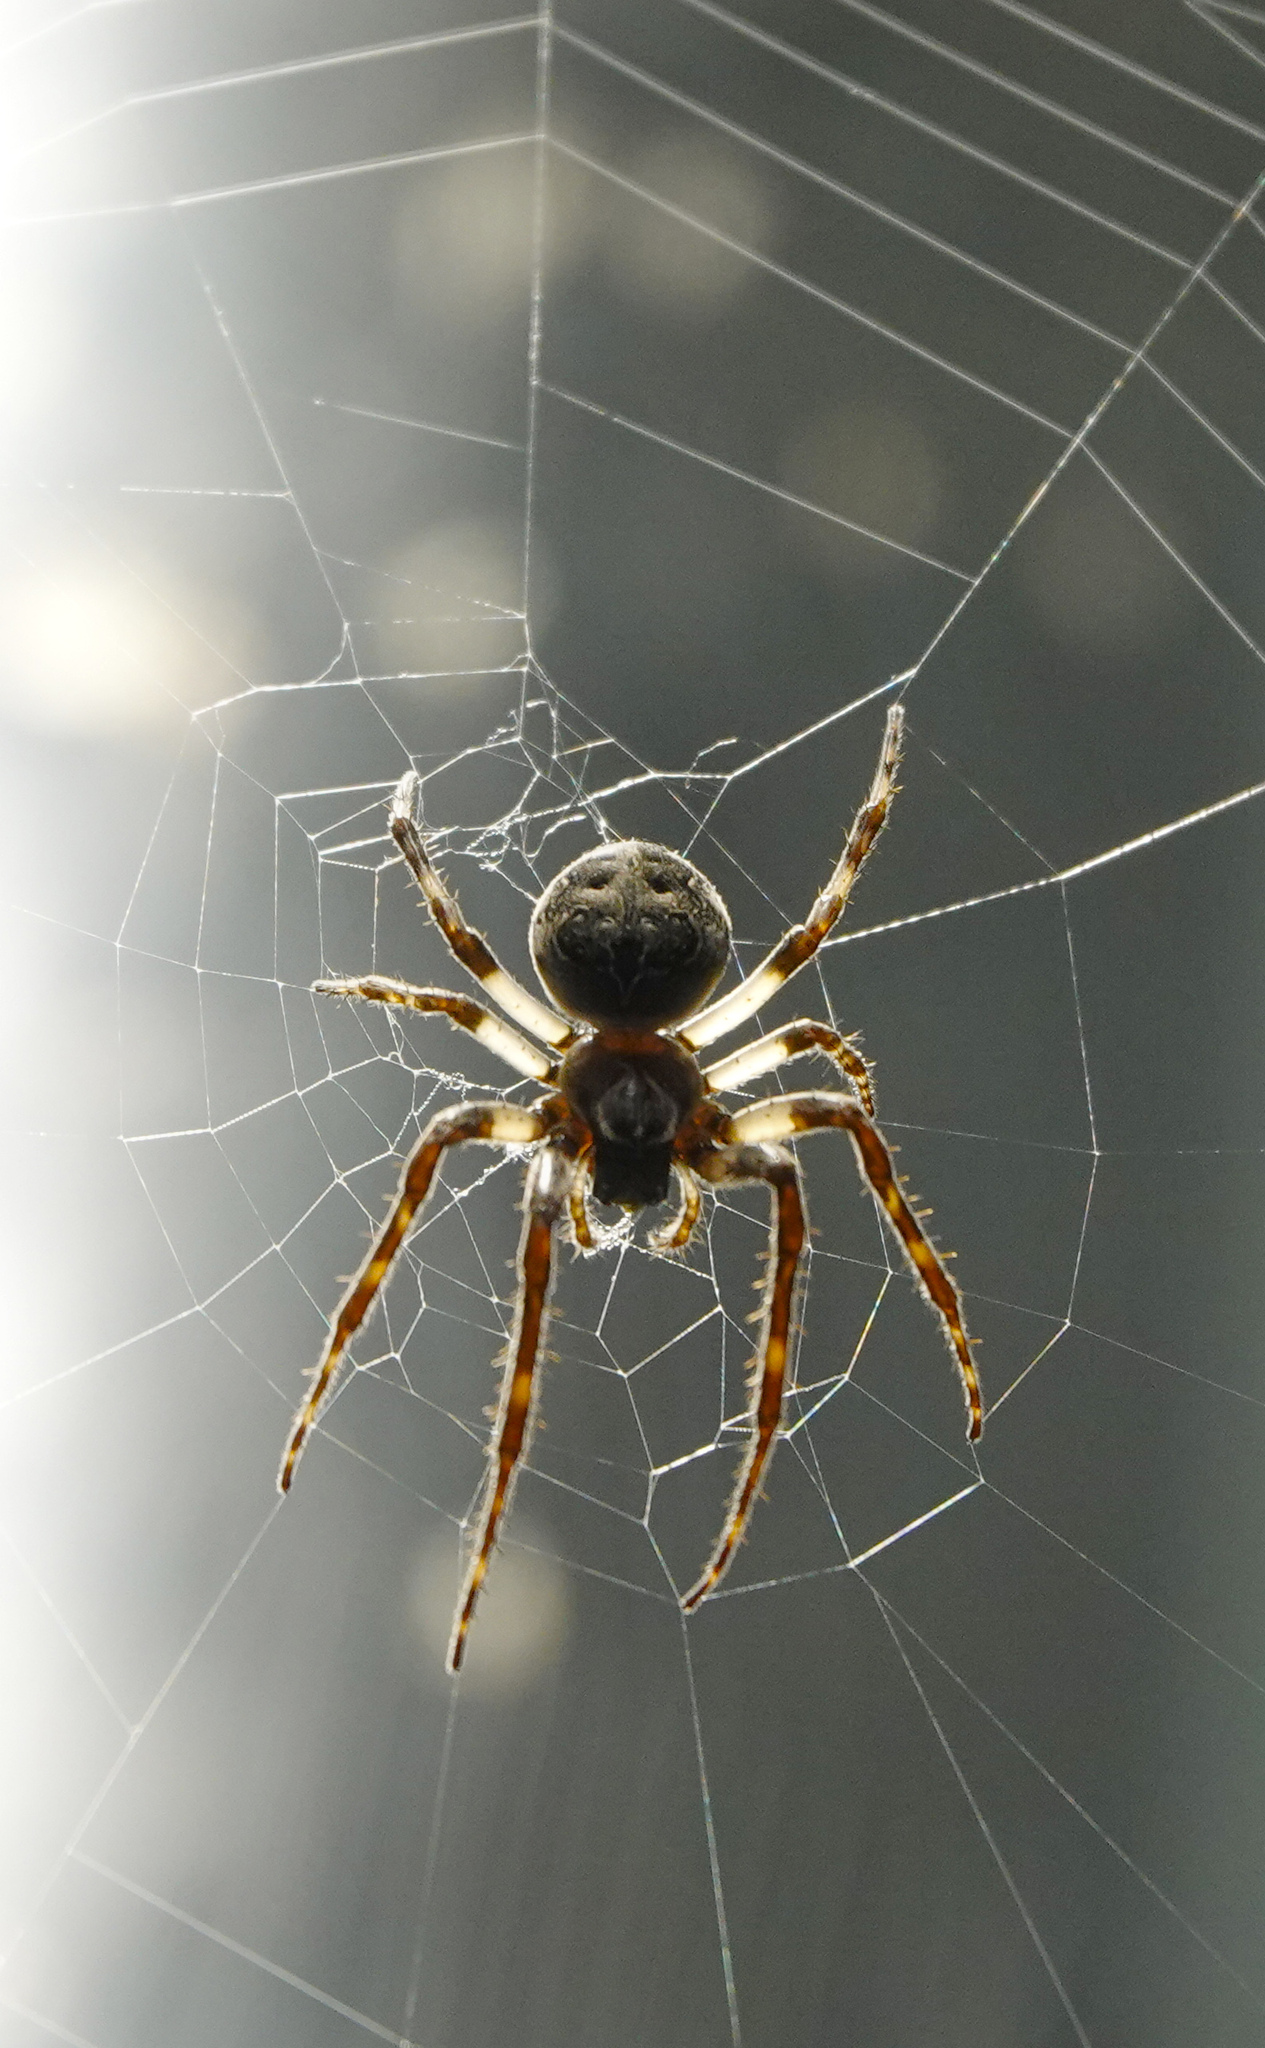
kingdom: Animalia
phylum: Arthropoda
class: Arachnida
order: Araneae
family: Araneidae
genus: Larinioides
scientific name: Larinioides sclopetarius
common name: Bridge orbweaver
